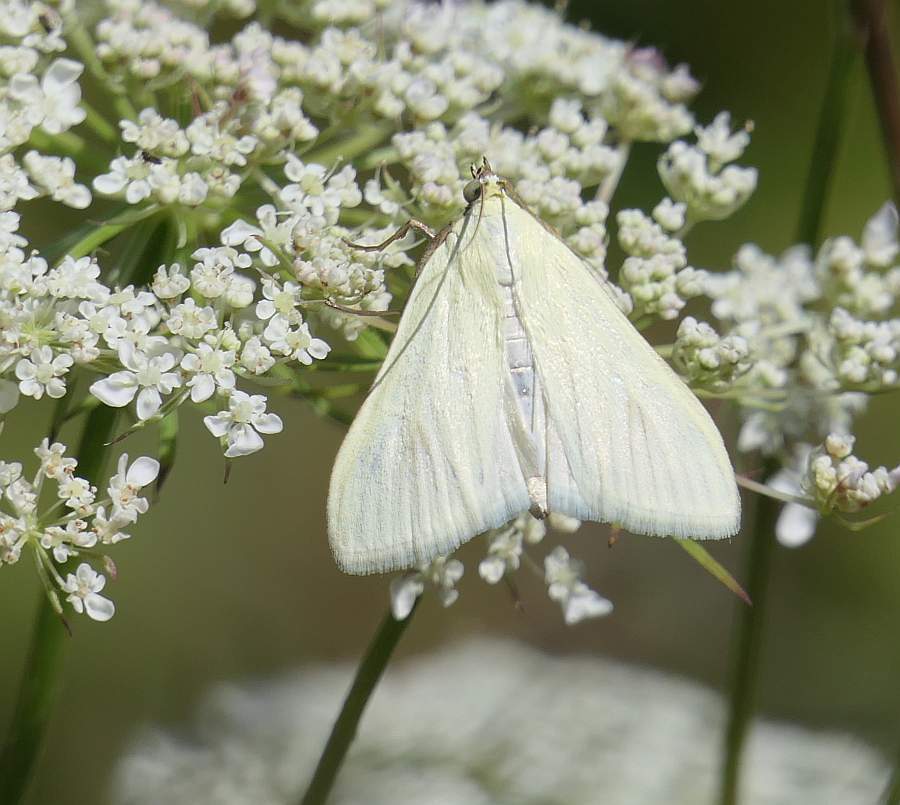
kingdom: Animalia
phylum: Arthropoda
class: Insecta
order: Lepidoptera
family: Crambidae
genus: Sitochroa
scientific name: Sitochroa palealis
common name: Greenish-yellow sitochroa moth
